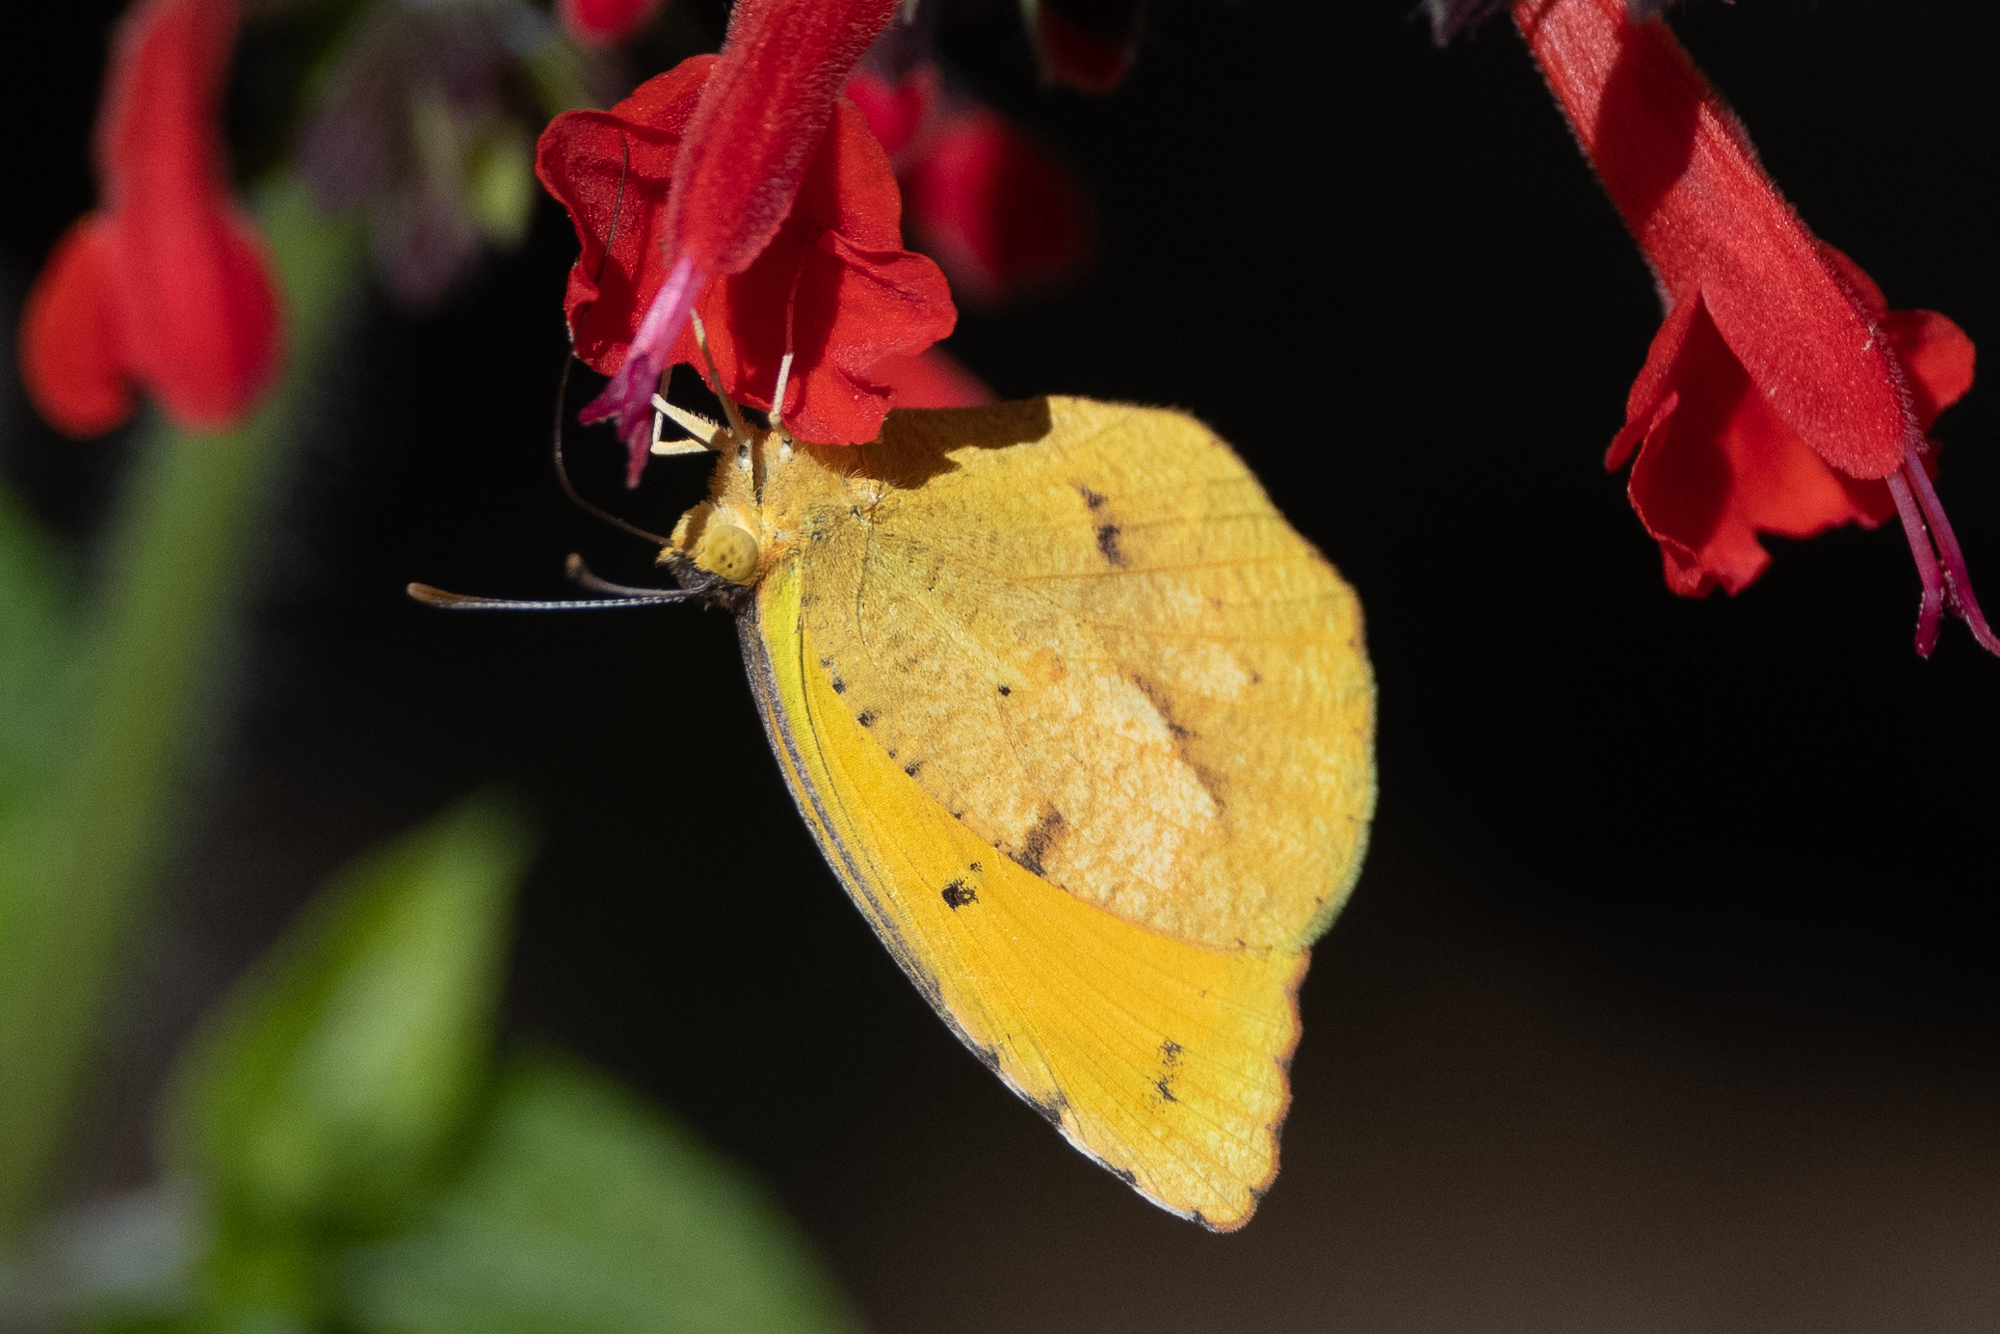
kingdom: Animalia
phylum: Arthropoda
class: Insecta
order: Lepidoptera
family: Pieridae
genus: Abaeis
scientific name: Abaeis nicippe
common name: Sleepy orange
